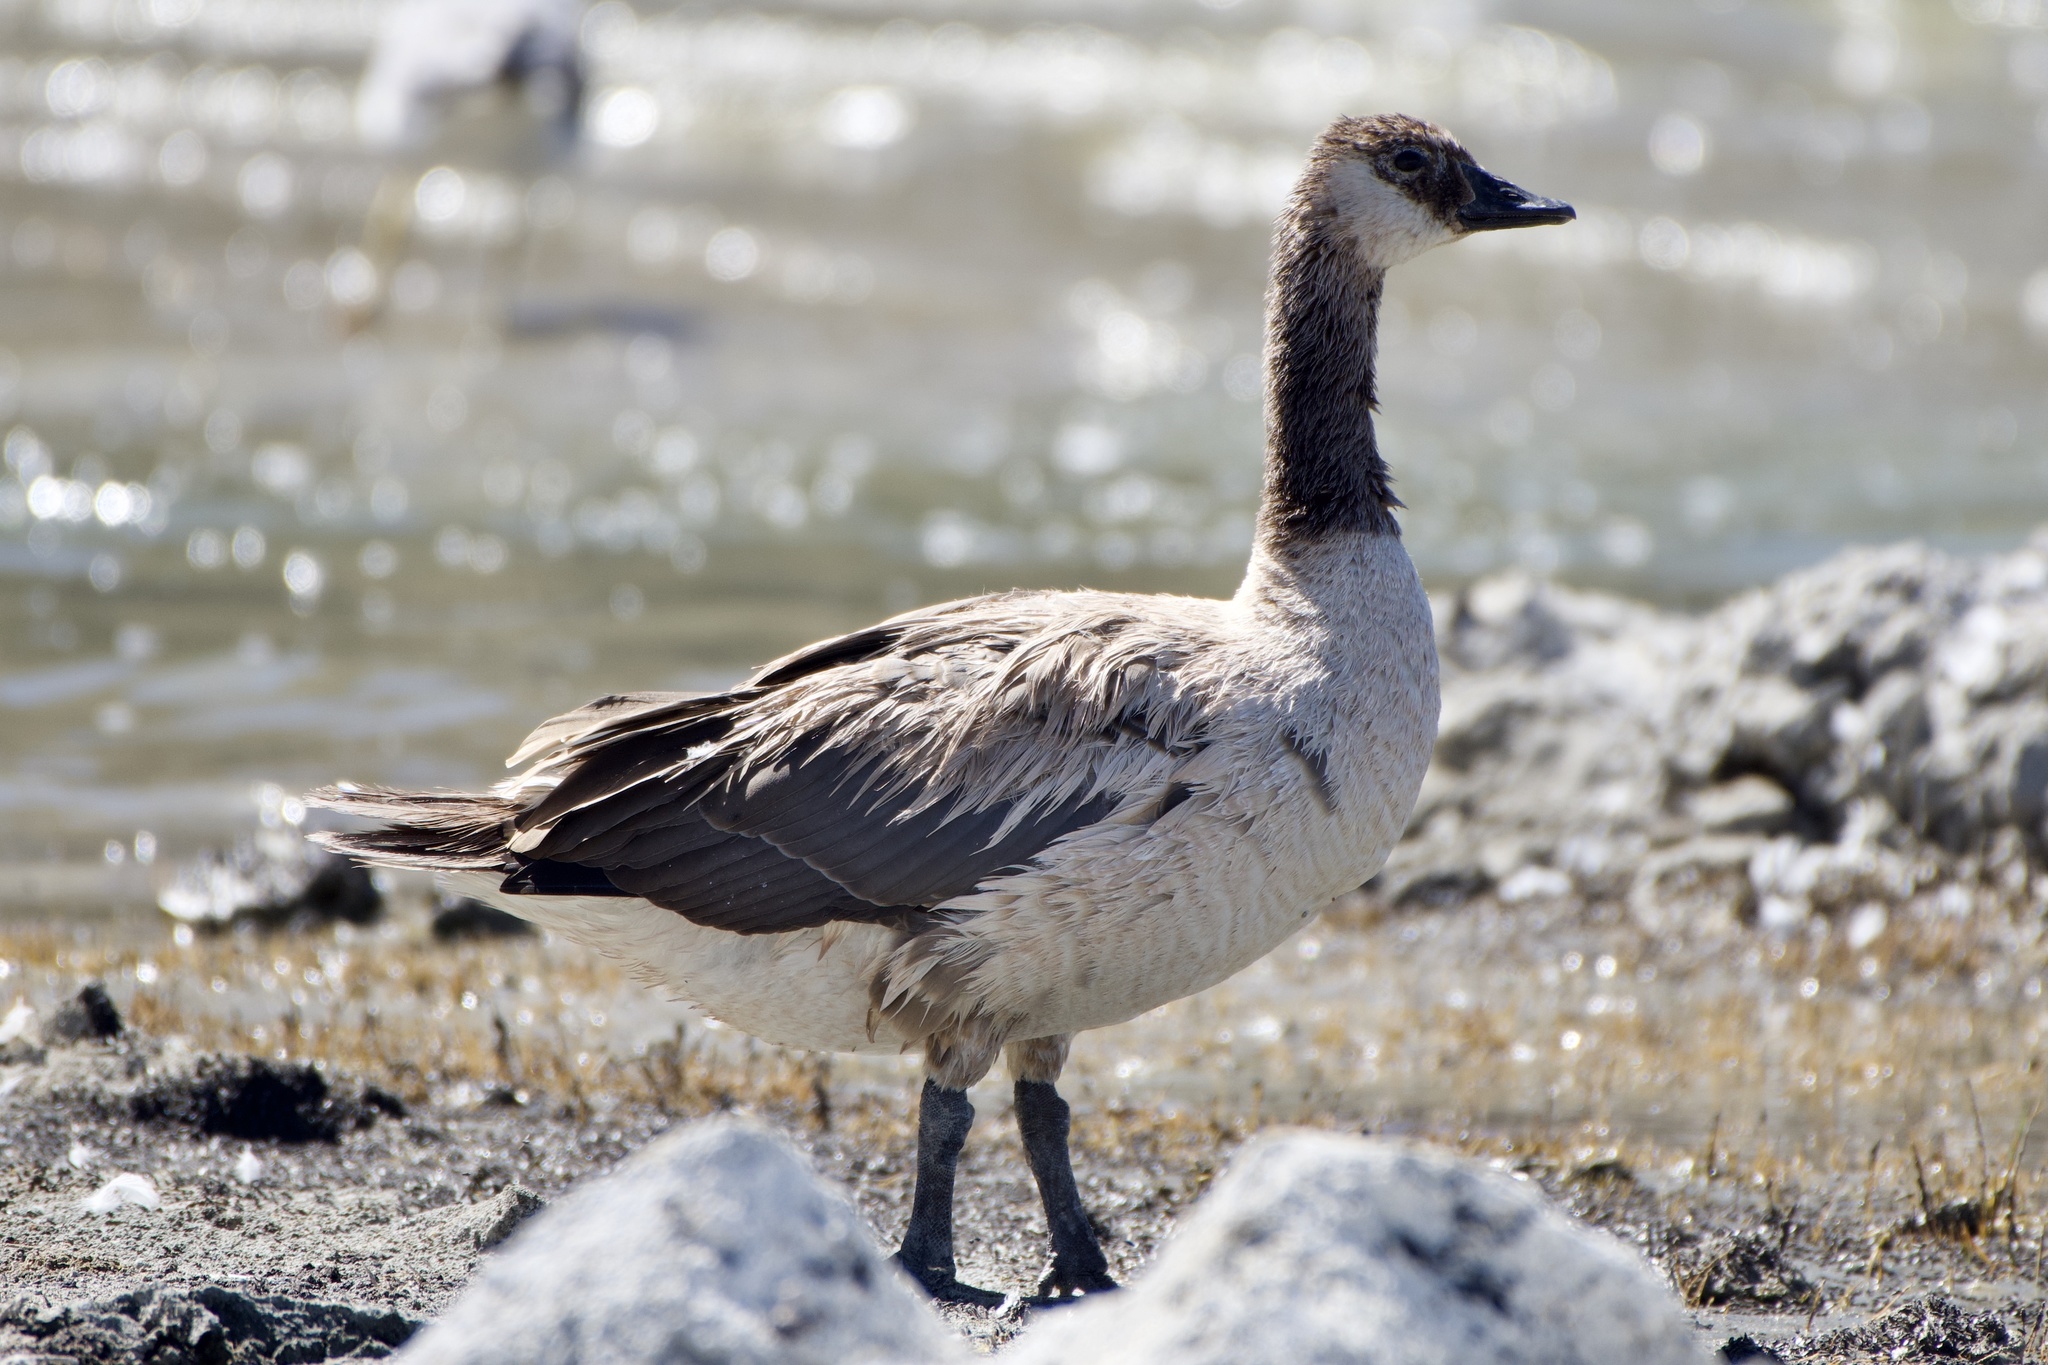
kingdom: Animalia
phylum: Chordata
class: Aves
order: Anseriformes
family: Anatidae
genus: Branta
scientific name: Branta canadensis
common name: Canada goose
